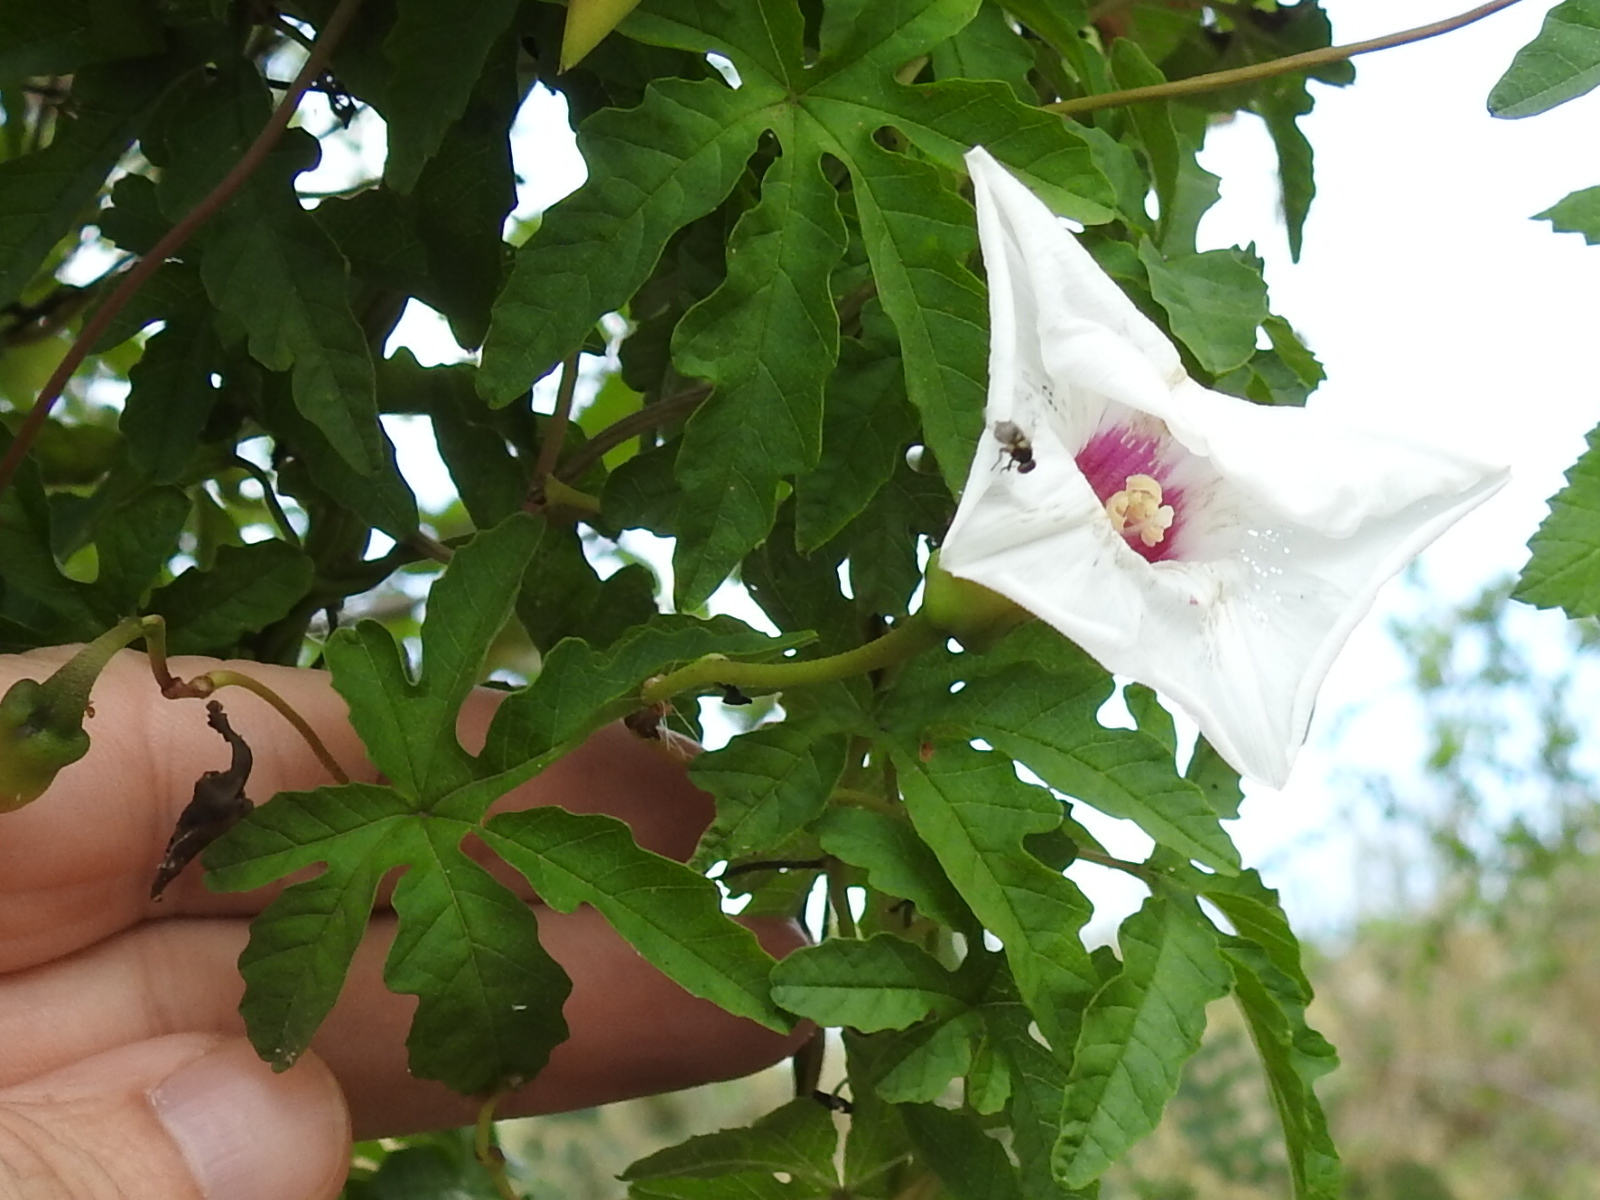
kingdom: Plantae
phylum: Tracheophyta
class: Magnoliopsida
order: Solanales
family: Convolvulaceae
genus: Distimake
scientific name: Distimake dissectus
